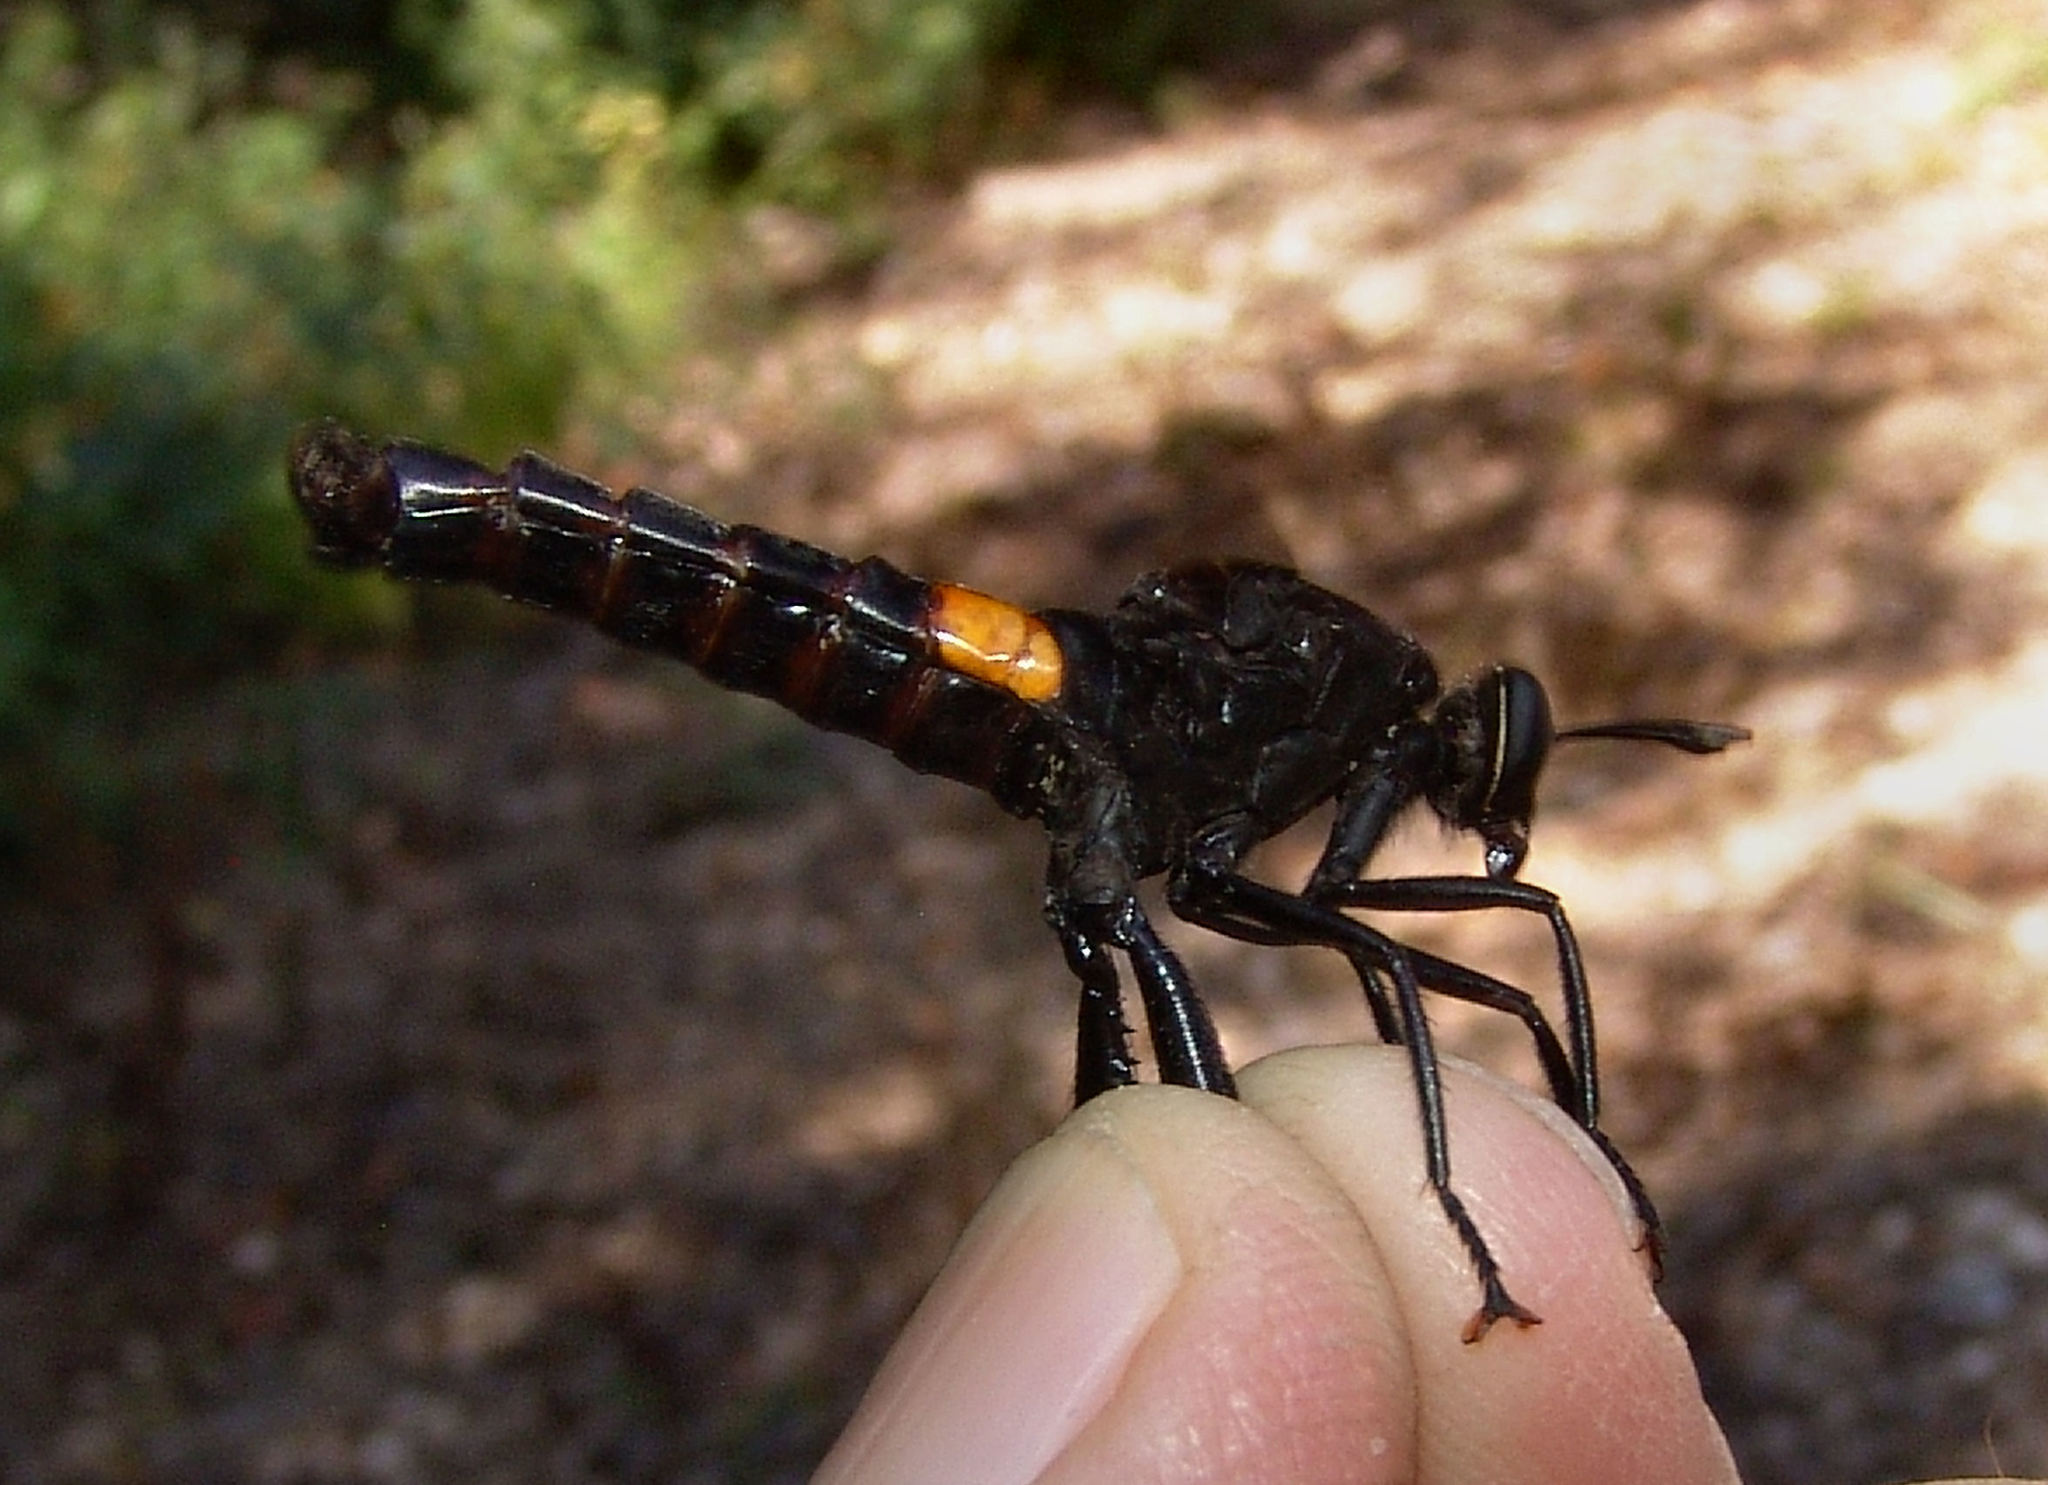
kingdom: Animalia
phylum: Arthropoda
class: Insecta
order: Diptera
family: Mydidae
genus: Mydas
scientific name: Mydas clavatus
